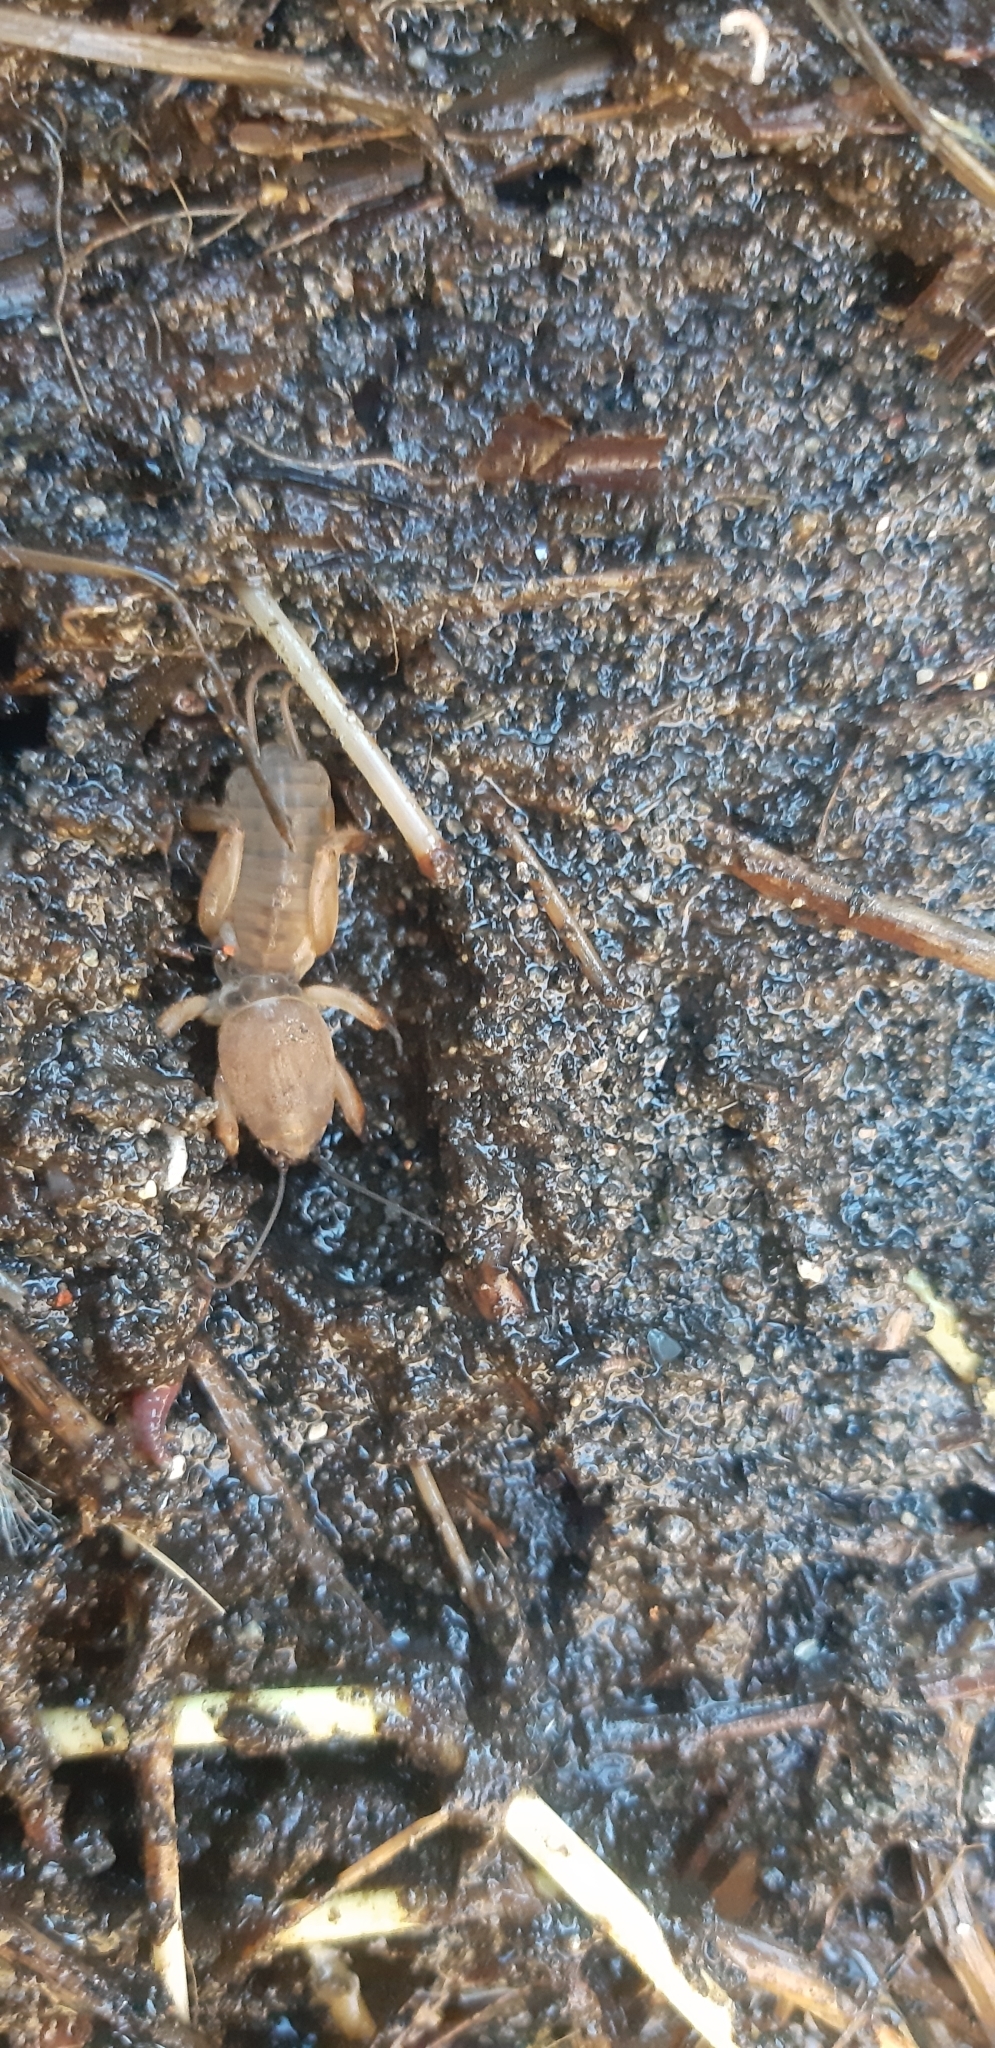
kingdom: Animalia
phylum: Arthropoda
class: Insecta
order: Orthoptera
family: Gryllotalpidae
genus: Gryllotalpa
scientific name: Gryllotalpa gryllotalpa
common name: European mole cricket
